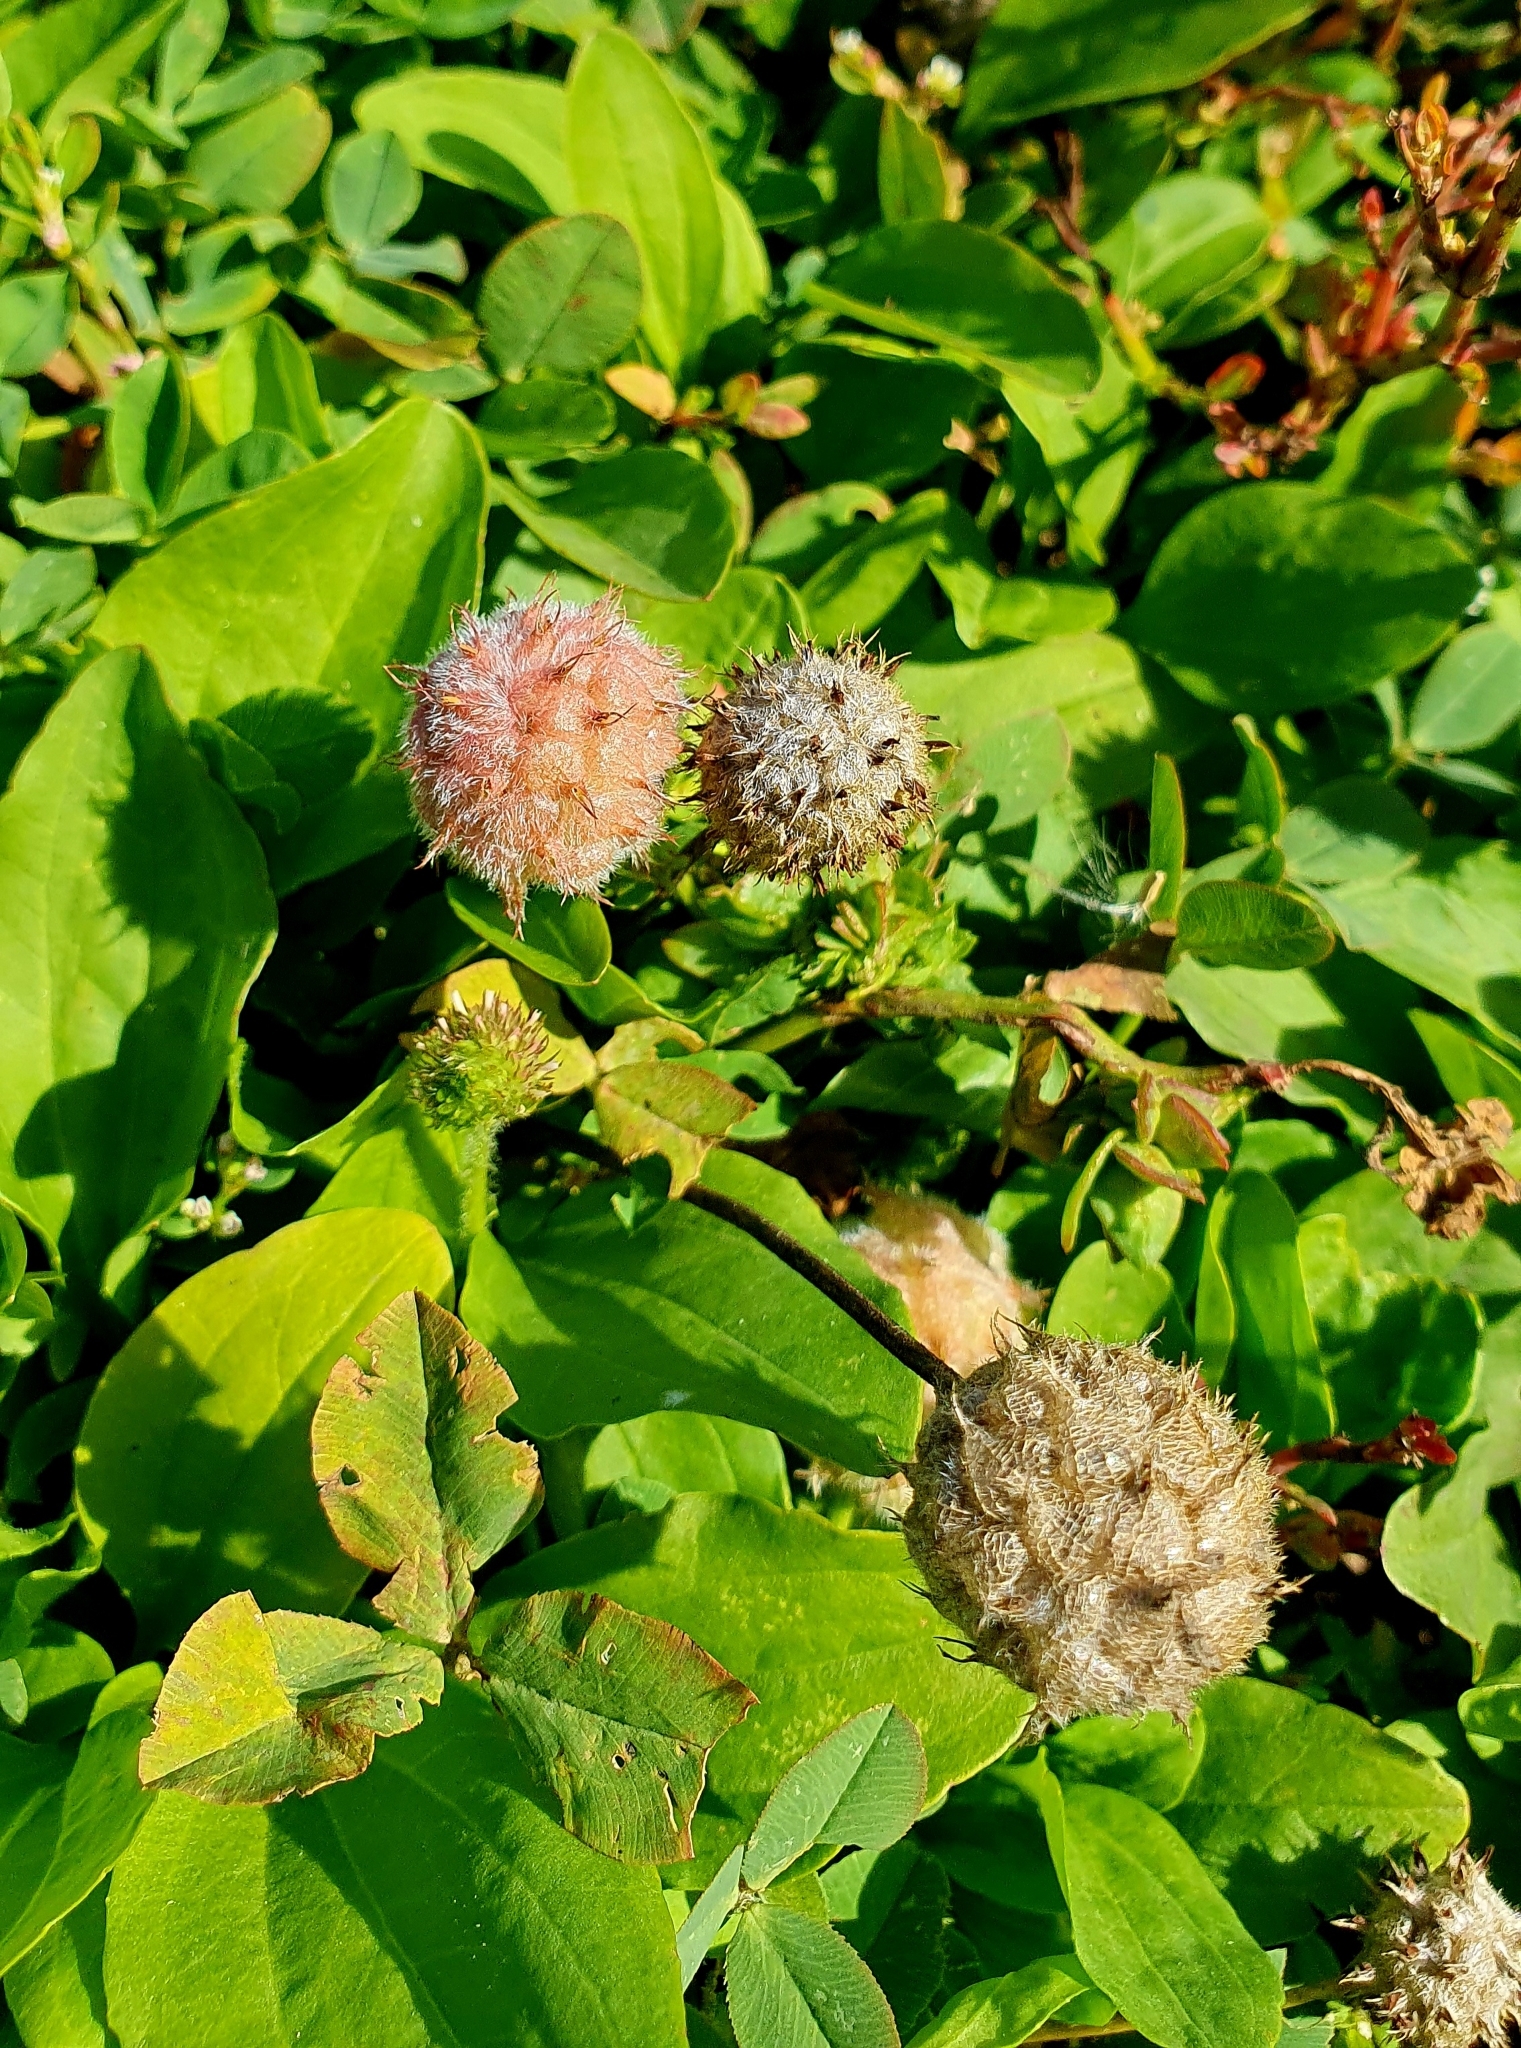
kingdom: Plantae
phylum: Tracheophyta
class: Magnoliopsida
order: Fabales
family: Fabaceae
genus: Trifolium
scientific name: Trifolium fragiferum
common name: Strawberry clover
